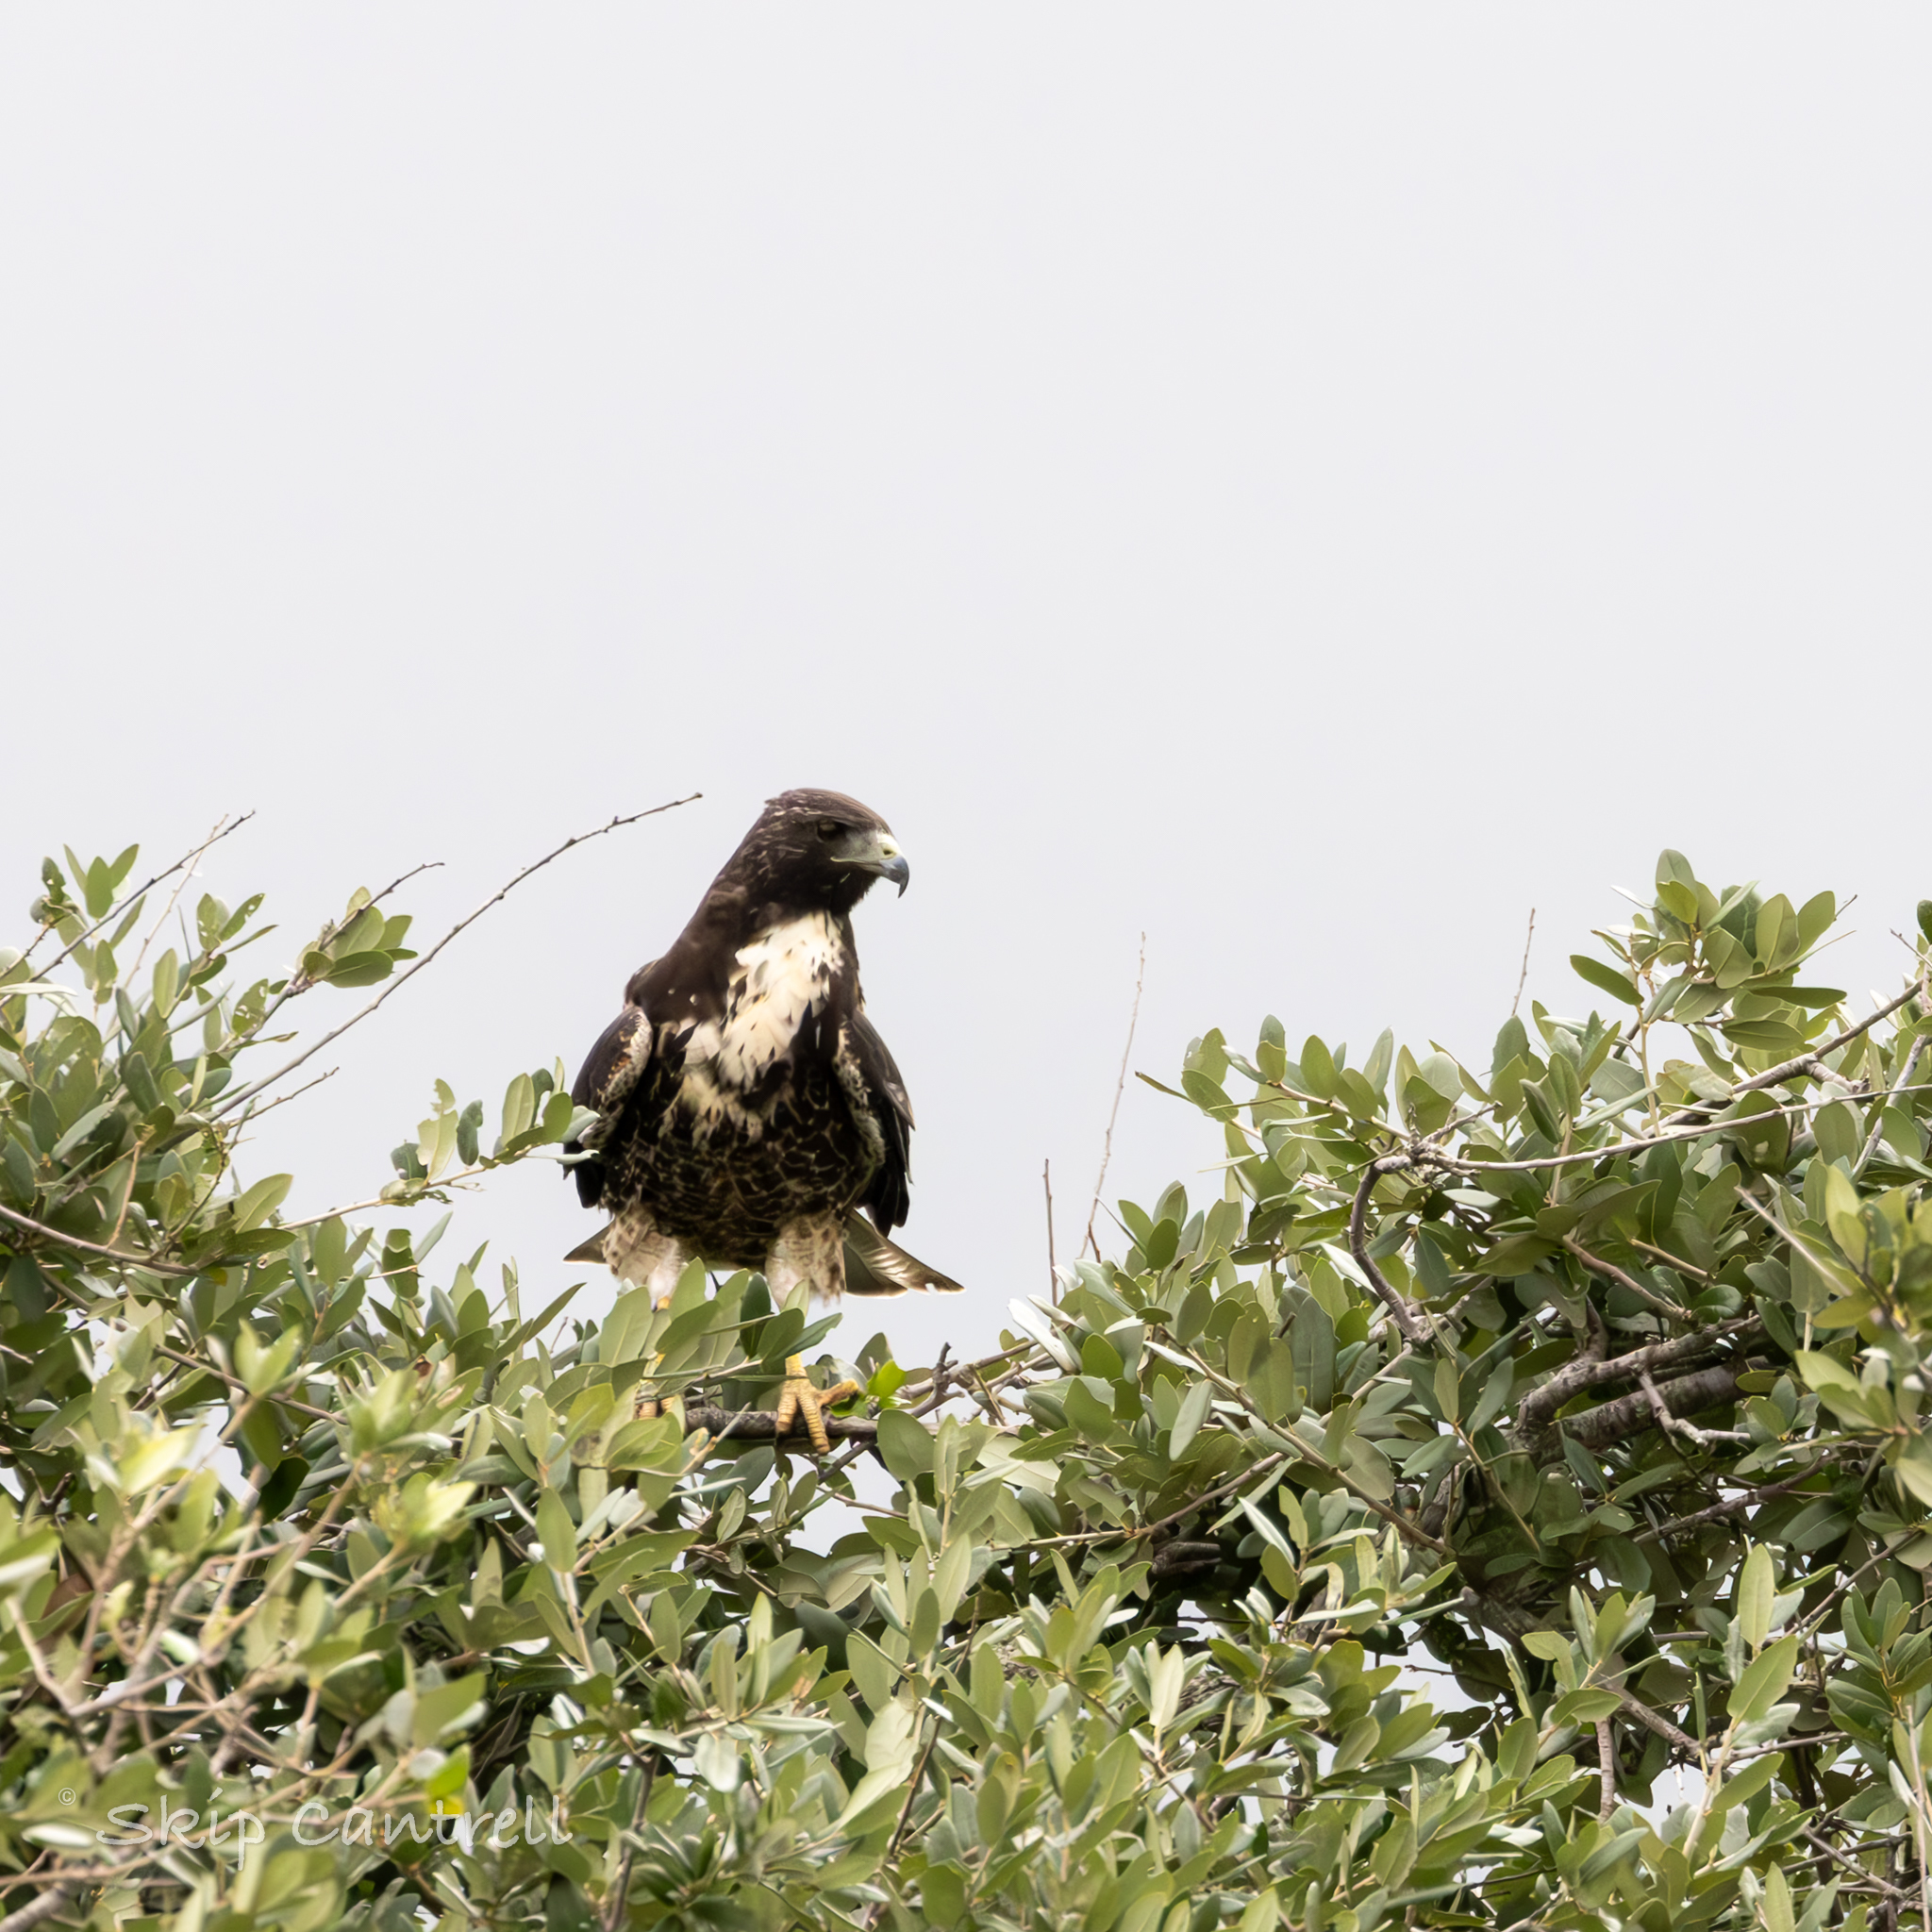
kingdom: Animalia
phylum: Chordata
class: Aves
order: Accipitriformes
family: Accipitridae
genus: Buteo
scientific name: Buteo albicaudatus
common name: White-tailed hawk
